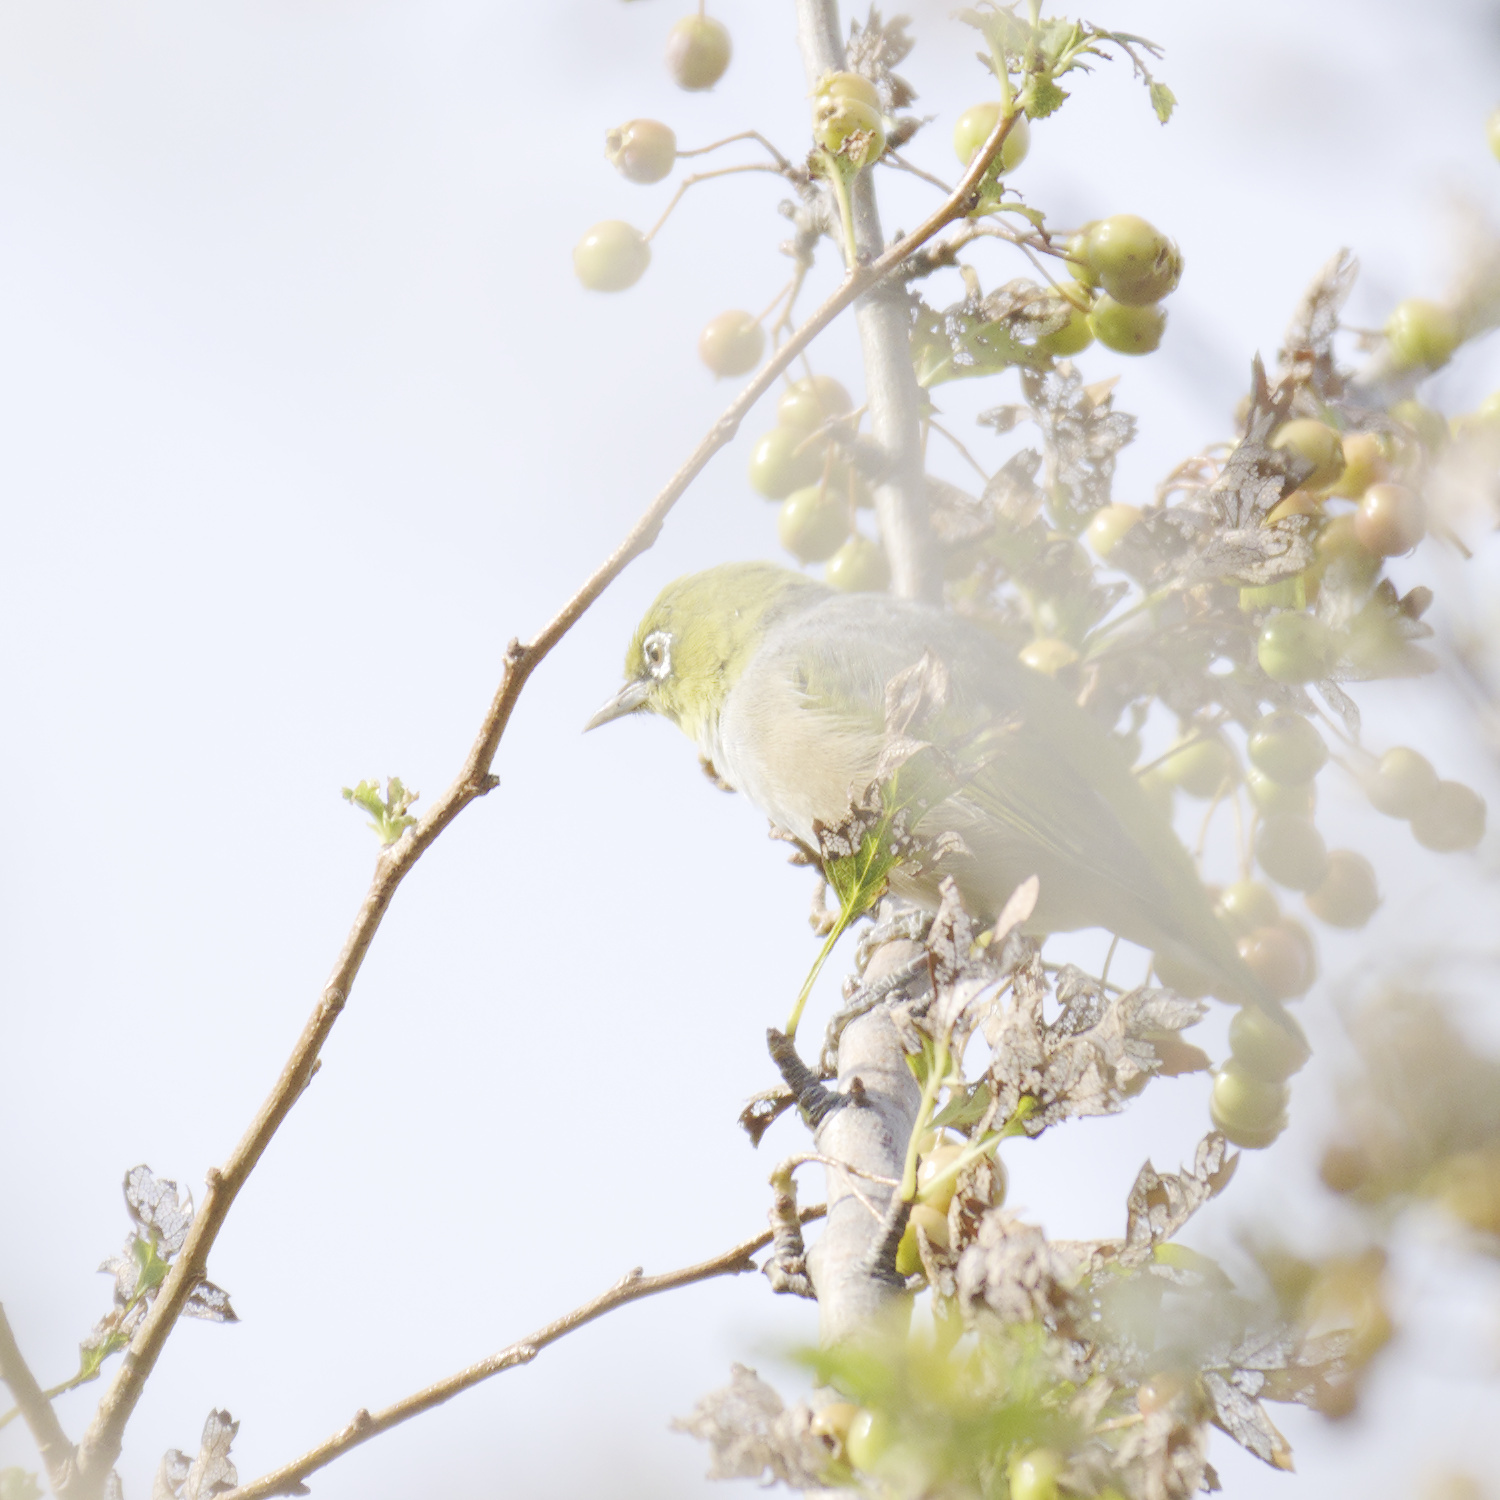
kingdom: Animalia
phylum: Chordata
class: Aves
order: Passeriformes
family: Zosteropidae
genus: Zosterops
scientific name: Zosterops lateralis
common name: Silvereye
